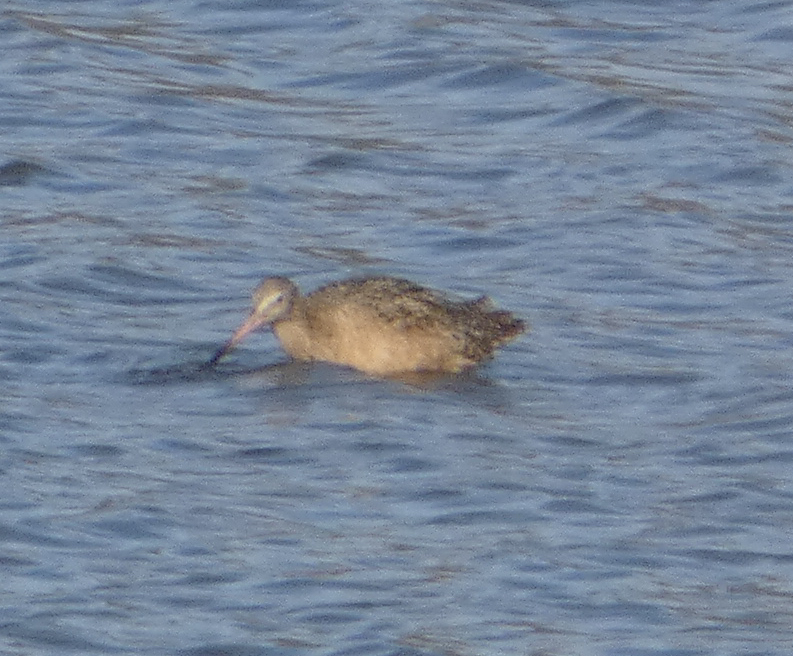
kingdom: Animalia
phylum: Chordata
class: Aves
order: Charadriiformes
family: Scolopacidae
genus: Limosa
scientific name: Limosa fedoa
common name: Marbled godwit
